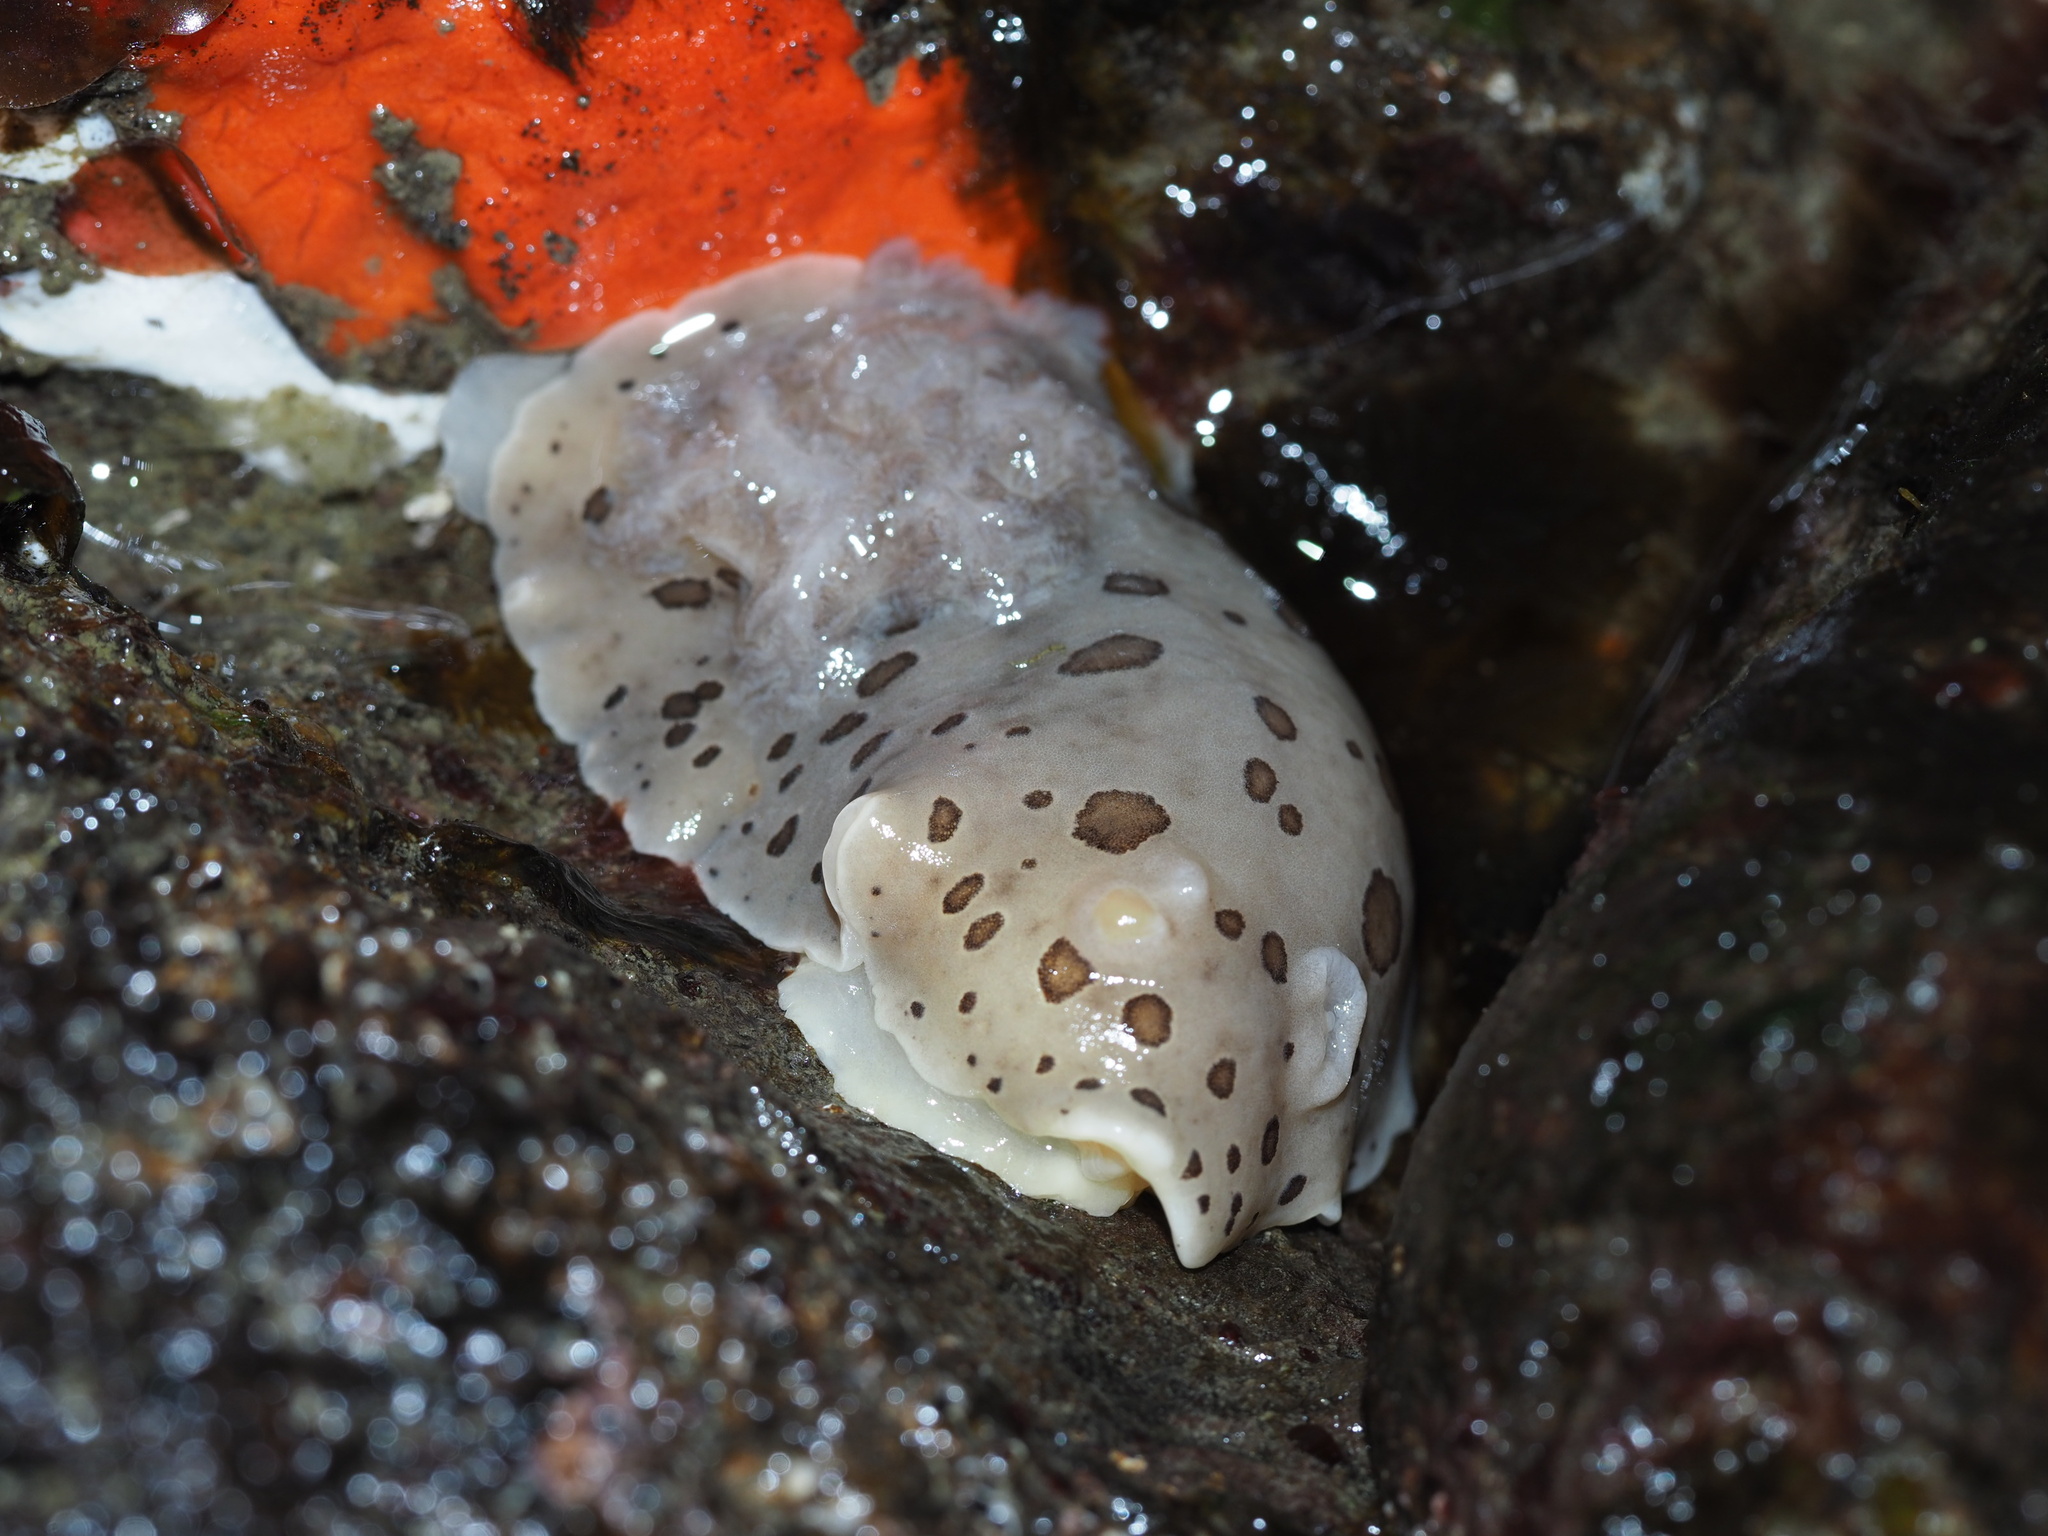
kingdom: Animalia
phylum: Mollusca
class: Gastropoda
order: Nudibranchia
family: Discodorididae
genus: Diaulula
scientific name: Diaulula odonoghuei
